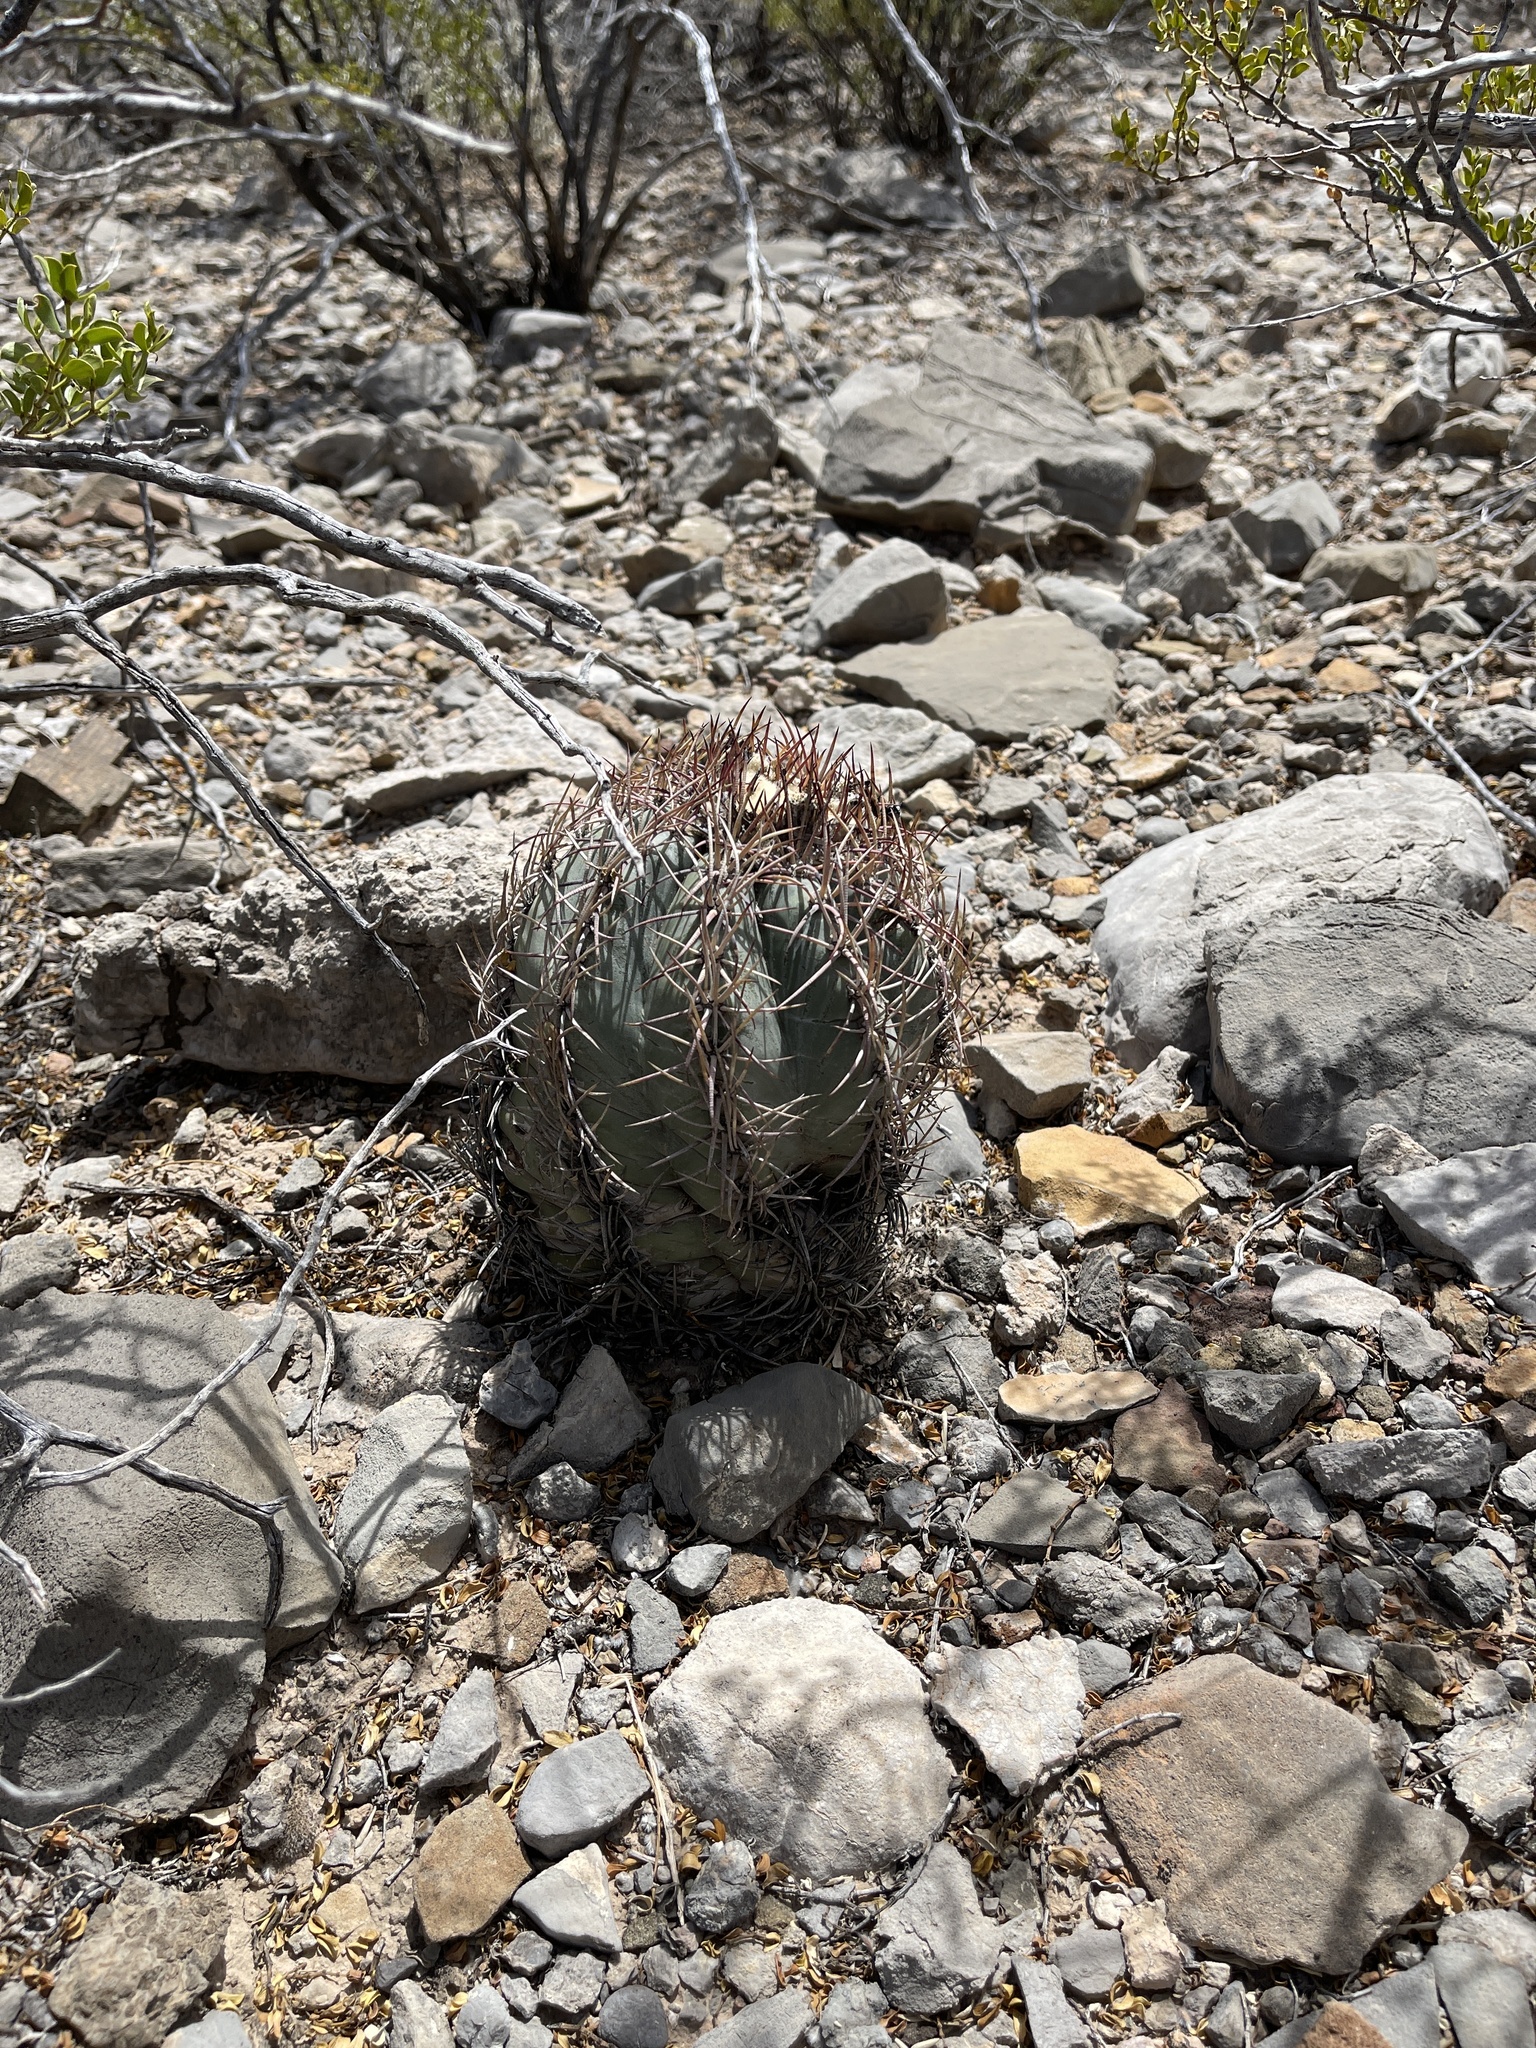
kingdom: Plantae
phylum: Tracheophyta
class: Magnoliopsida
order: Caryophyllales
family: Cactaceae
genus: Echinocactus
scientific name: Echinocactus horizonthalonius
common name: Devilshead
